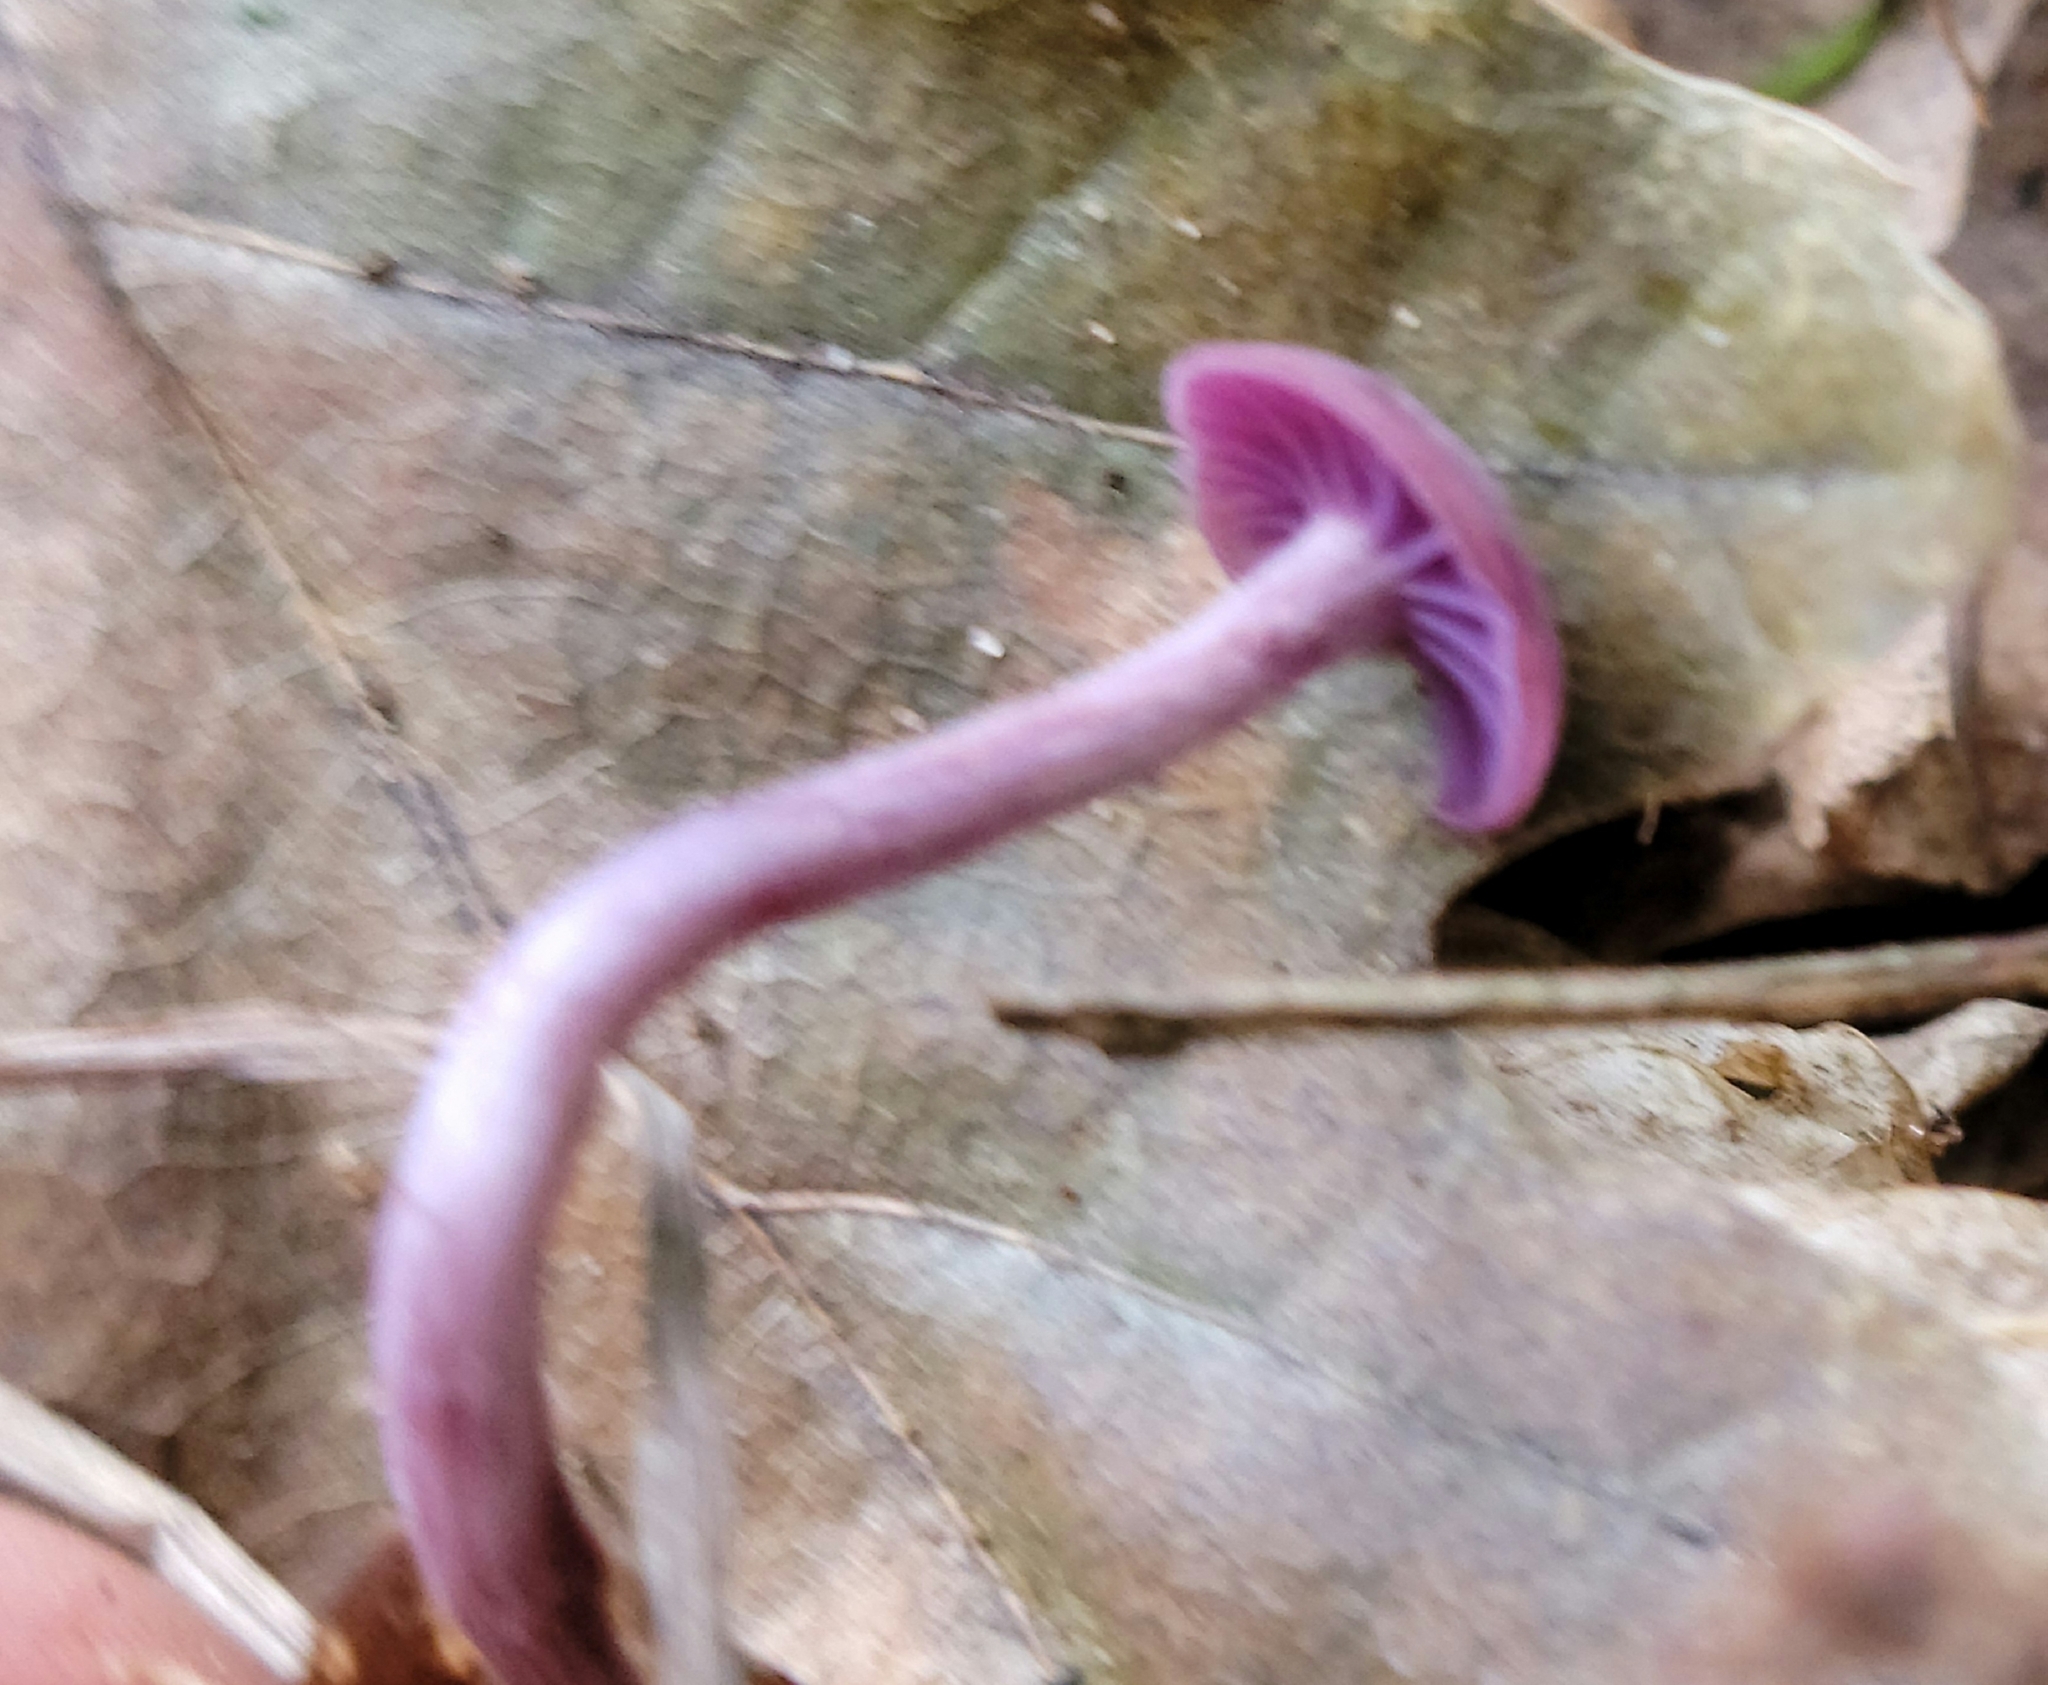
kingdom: Fungi
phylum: Basidiomycota
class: Agaricomycetes
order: Agaricales
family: Hydnangiaceae
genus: Laccaria
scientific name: Laccaria amethystina
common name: Amethyst deceiver
